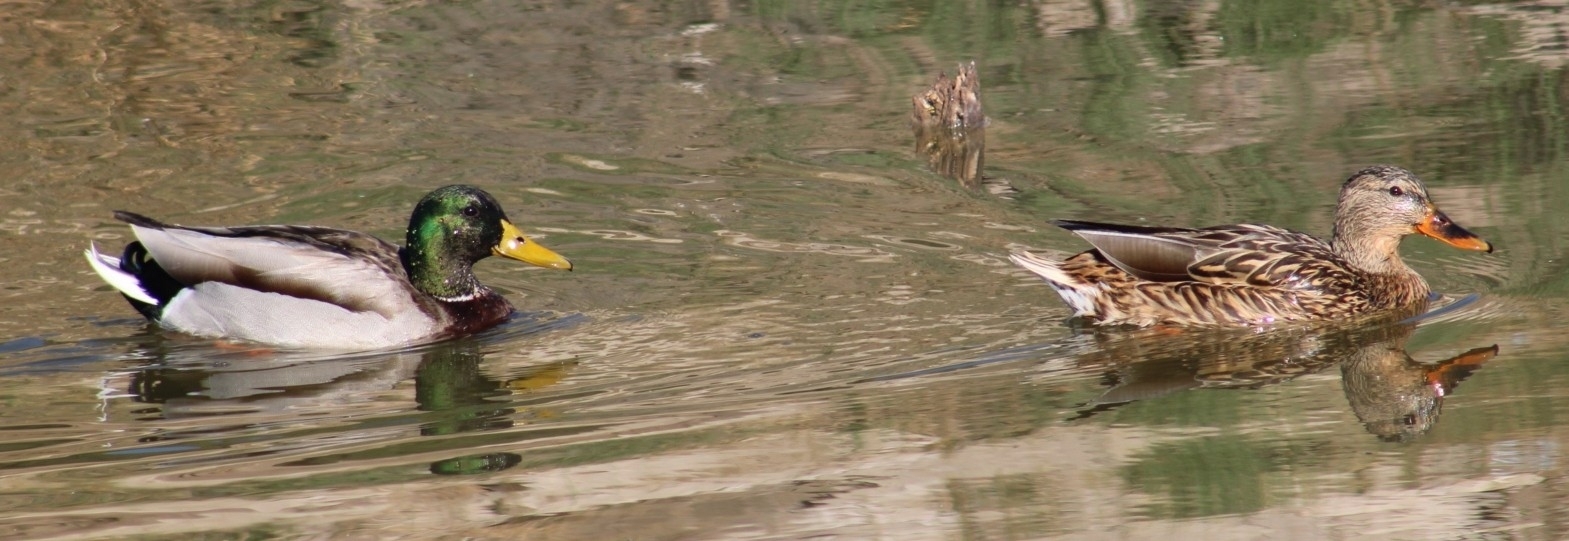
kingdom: Animalia
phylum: Chordata
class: Aves
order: Anseriformes
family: Anatidae
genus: Anas
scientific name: Anas platyrhynchos
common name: Mallard
